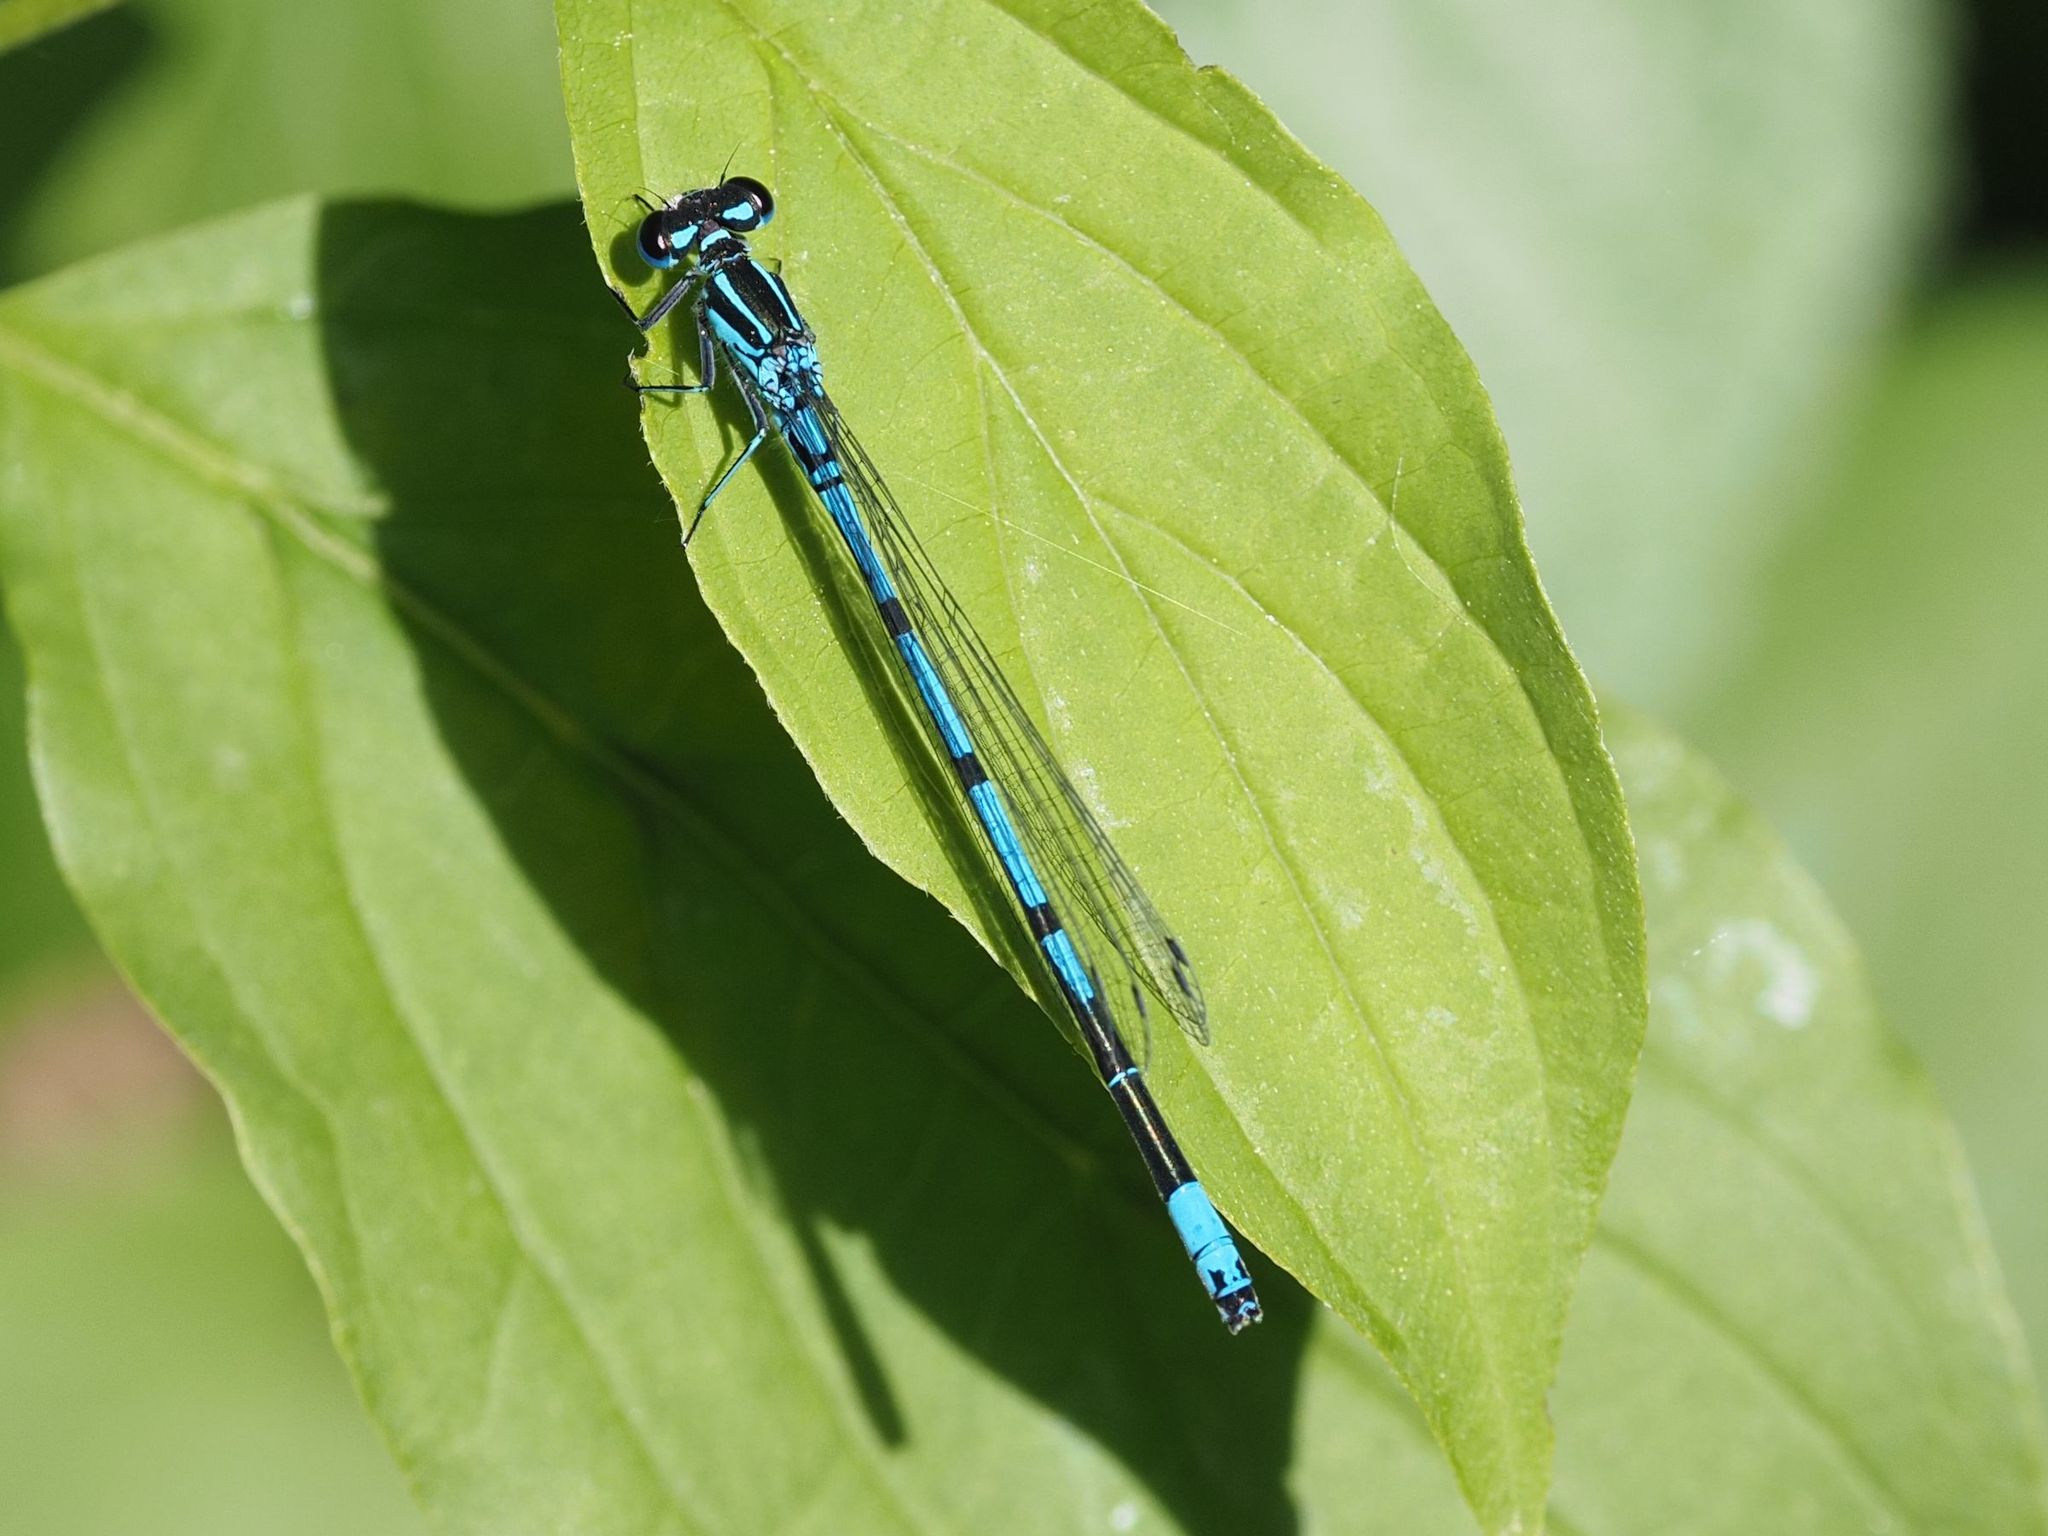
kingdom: Animalia
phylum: Arthropoda
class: Insecta
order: Odonata
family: Coenagrionidae
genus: Coenagrion
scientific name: Coenagrion puella
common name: Azure damselfly
